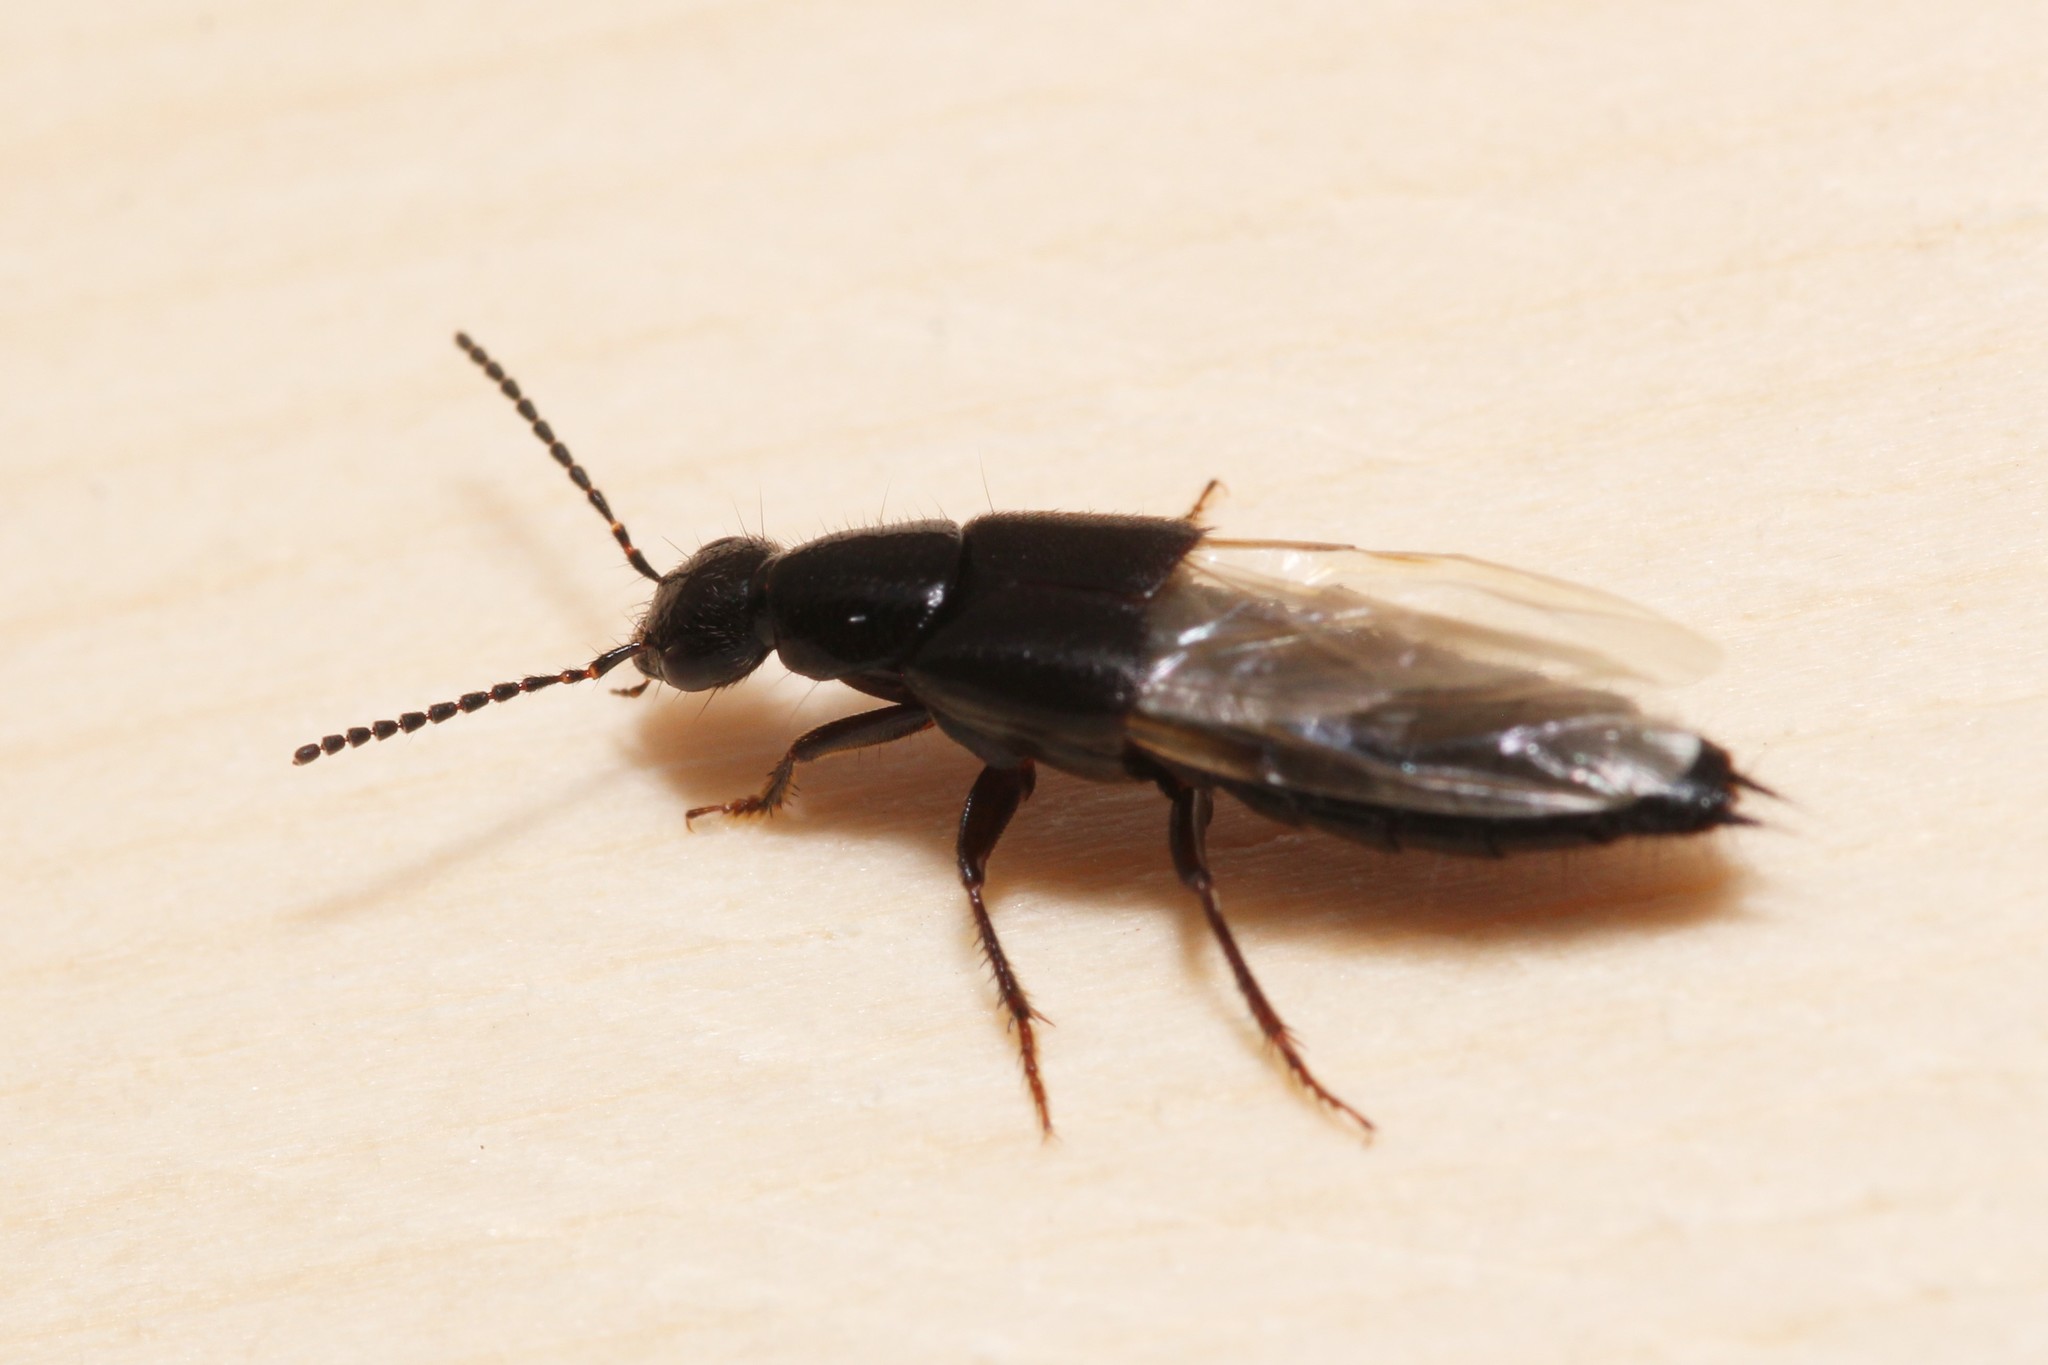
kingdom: Animalia
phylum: Arthropoda
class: Insecta
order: Coleoptera
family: Staphylinidae
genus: Philonthus
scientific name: Philonthus vulgatus
